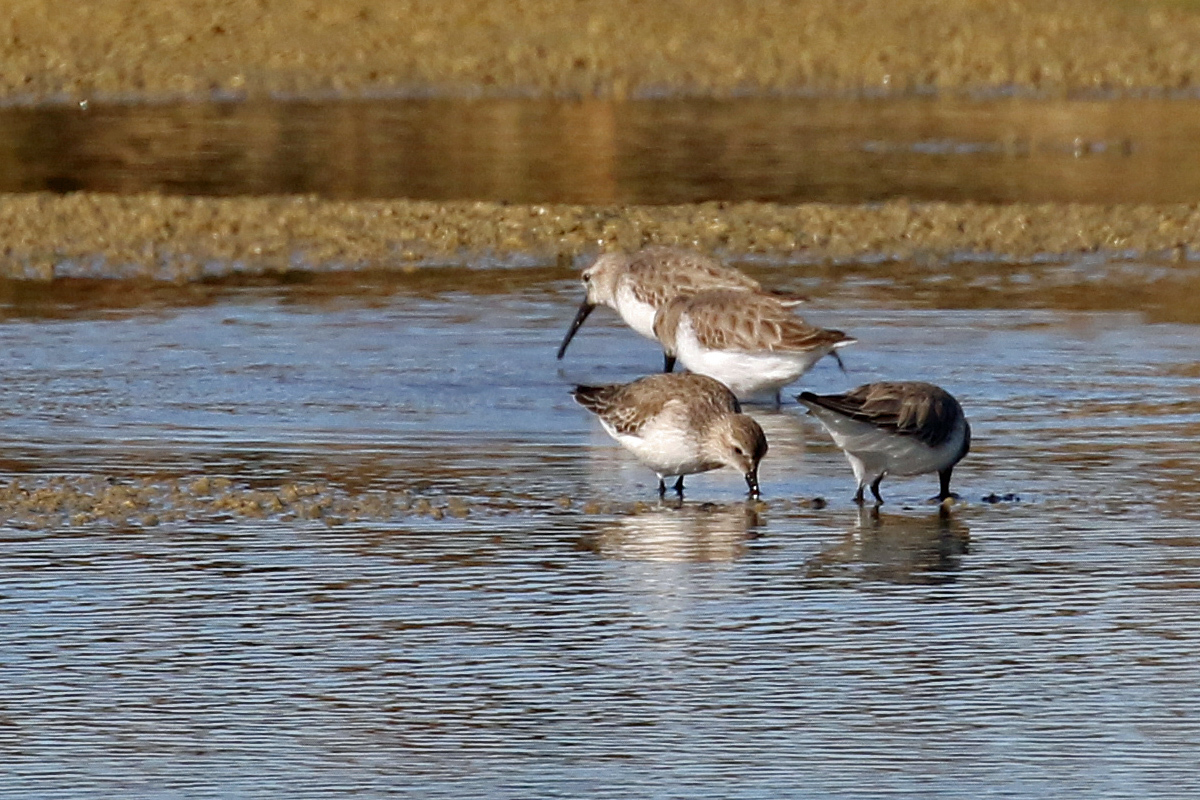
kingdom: Animalia
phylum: Chordata
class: Aves
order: Charadriiformes
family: Scolopacidae
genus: Calidris
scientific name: Calidris alpina
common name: Dunlin
